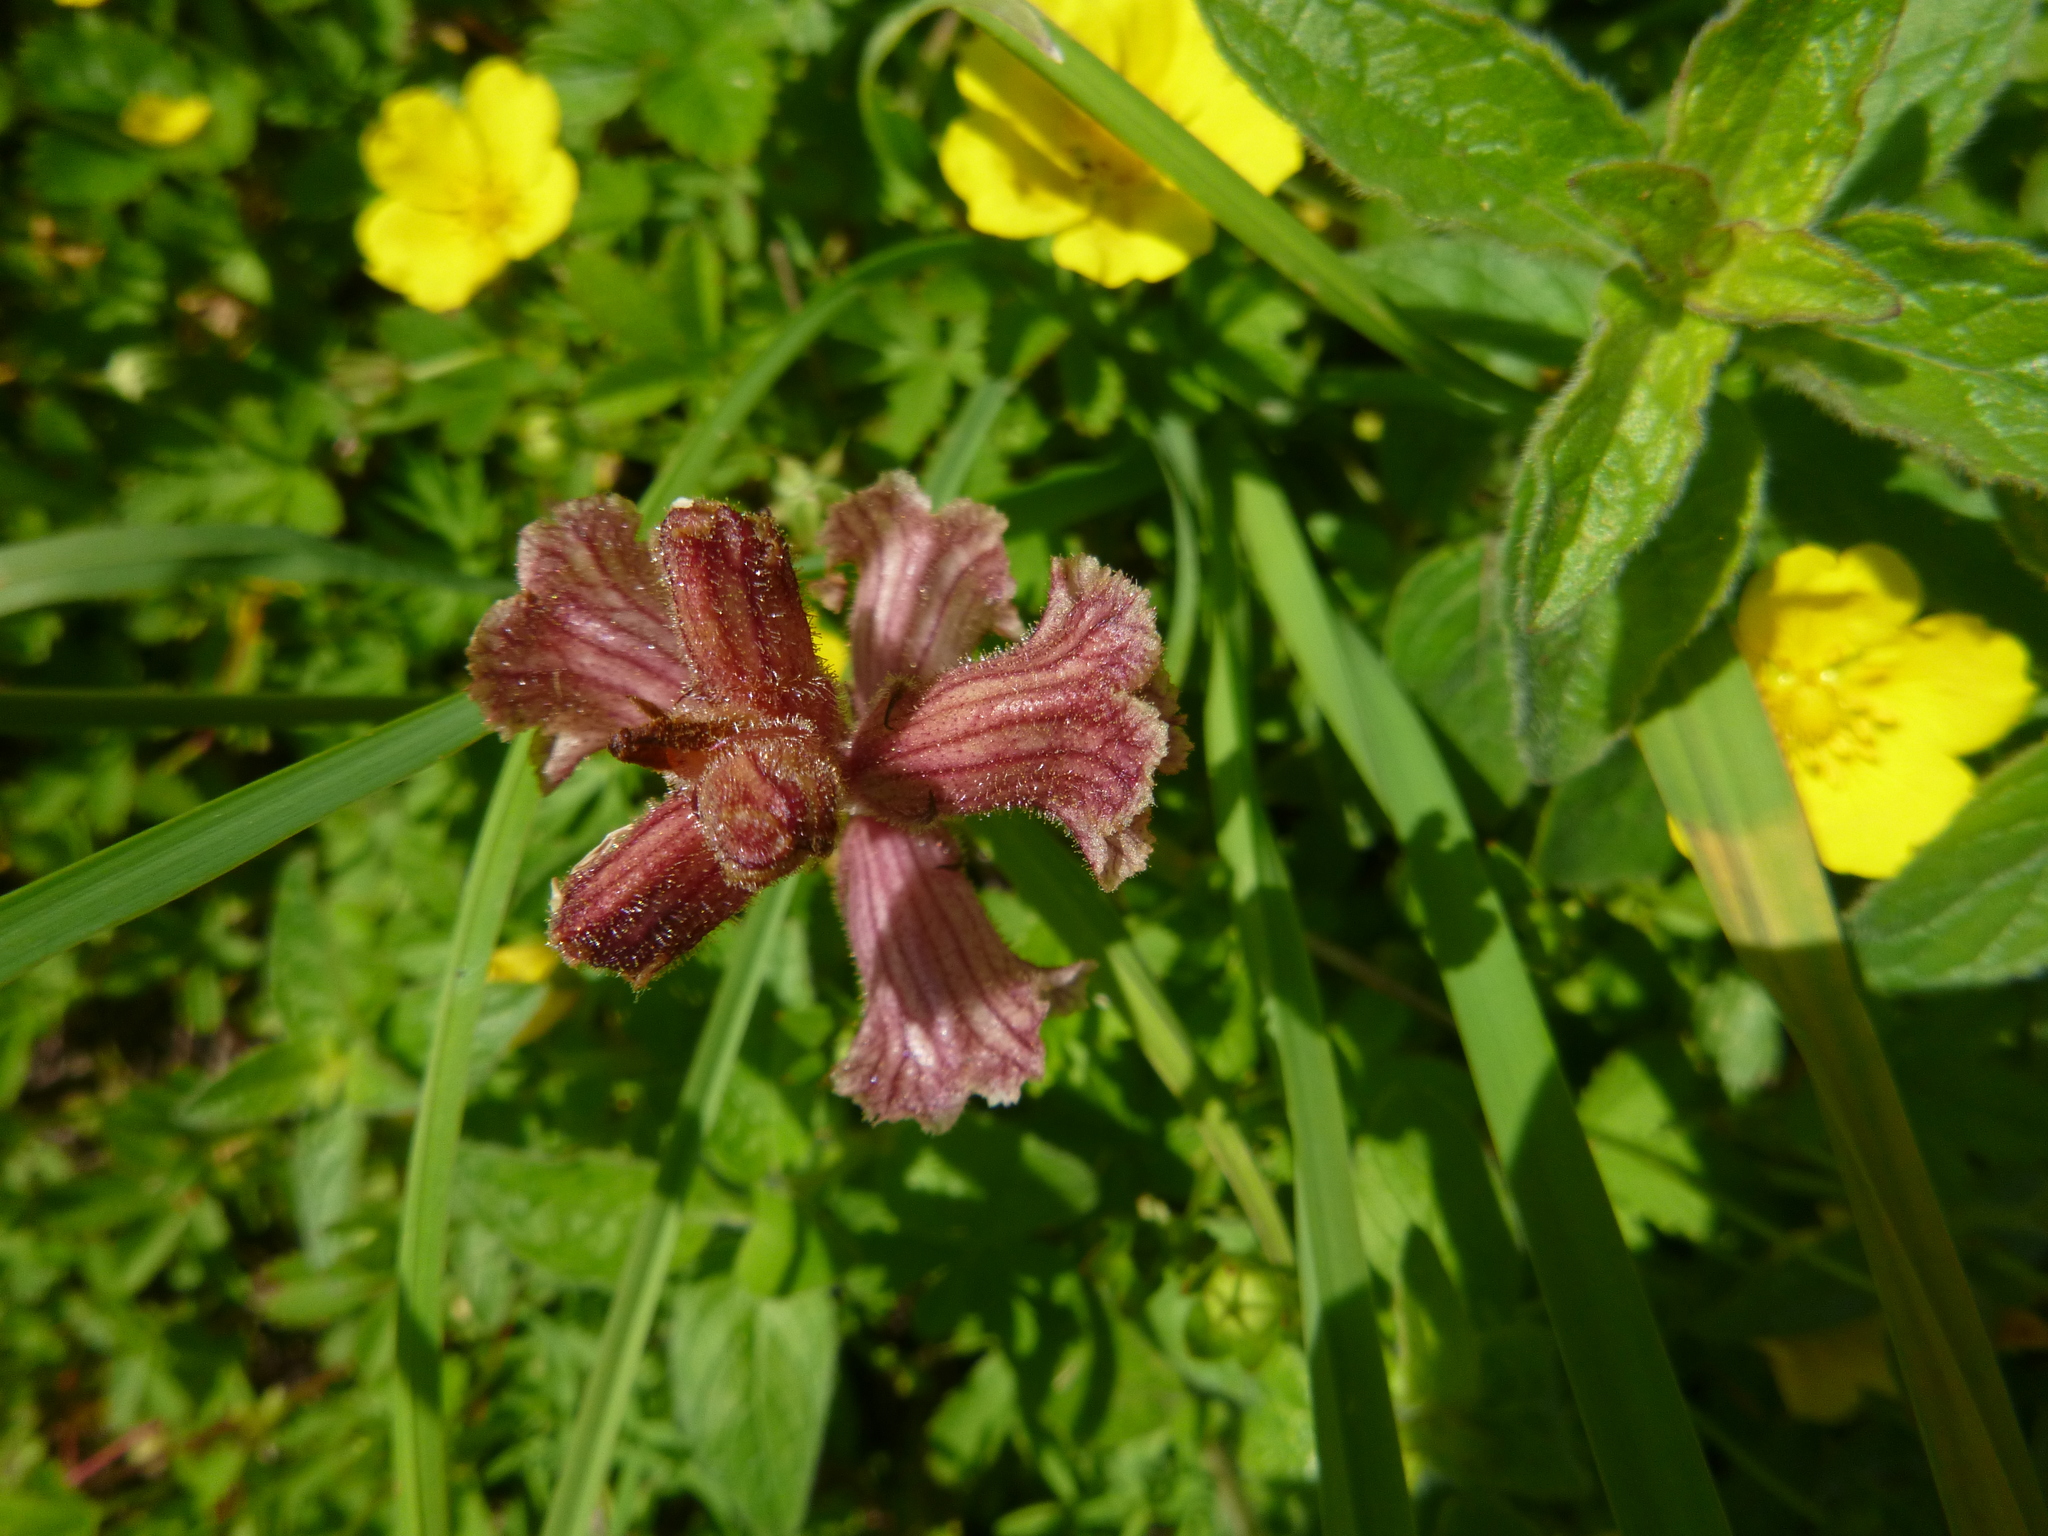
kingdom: Plantae
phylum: Tracheophyta
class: Magnoliopsida
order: Lamiales
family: Orobanchaceae
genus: Orobanche
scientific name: Orobanche alba
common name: Thyme broomrape
